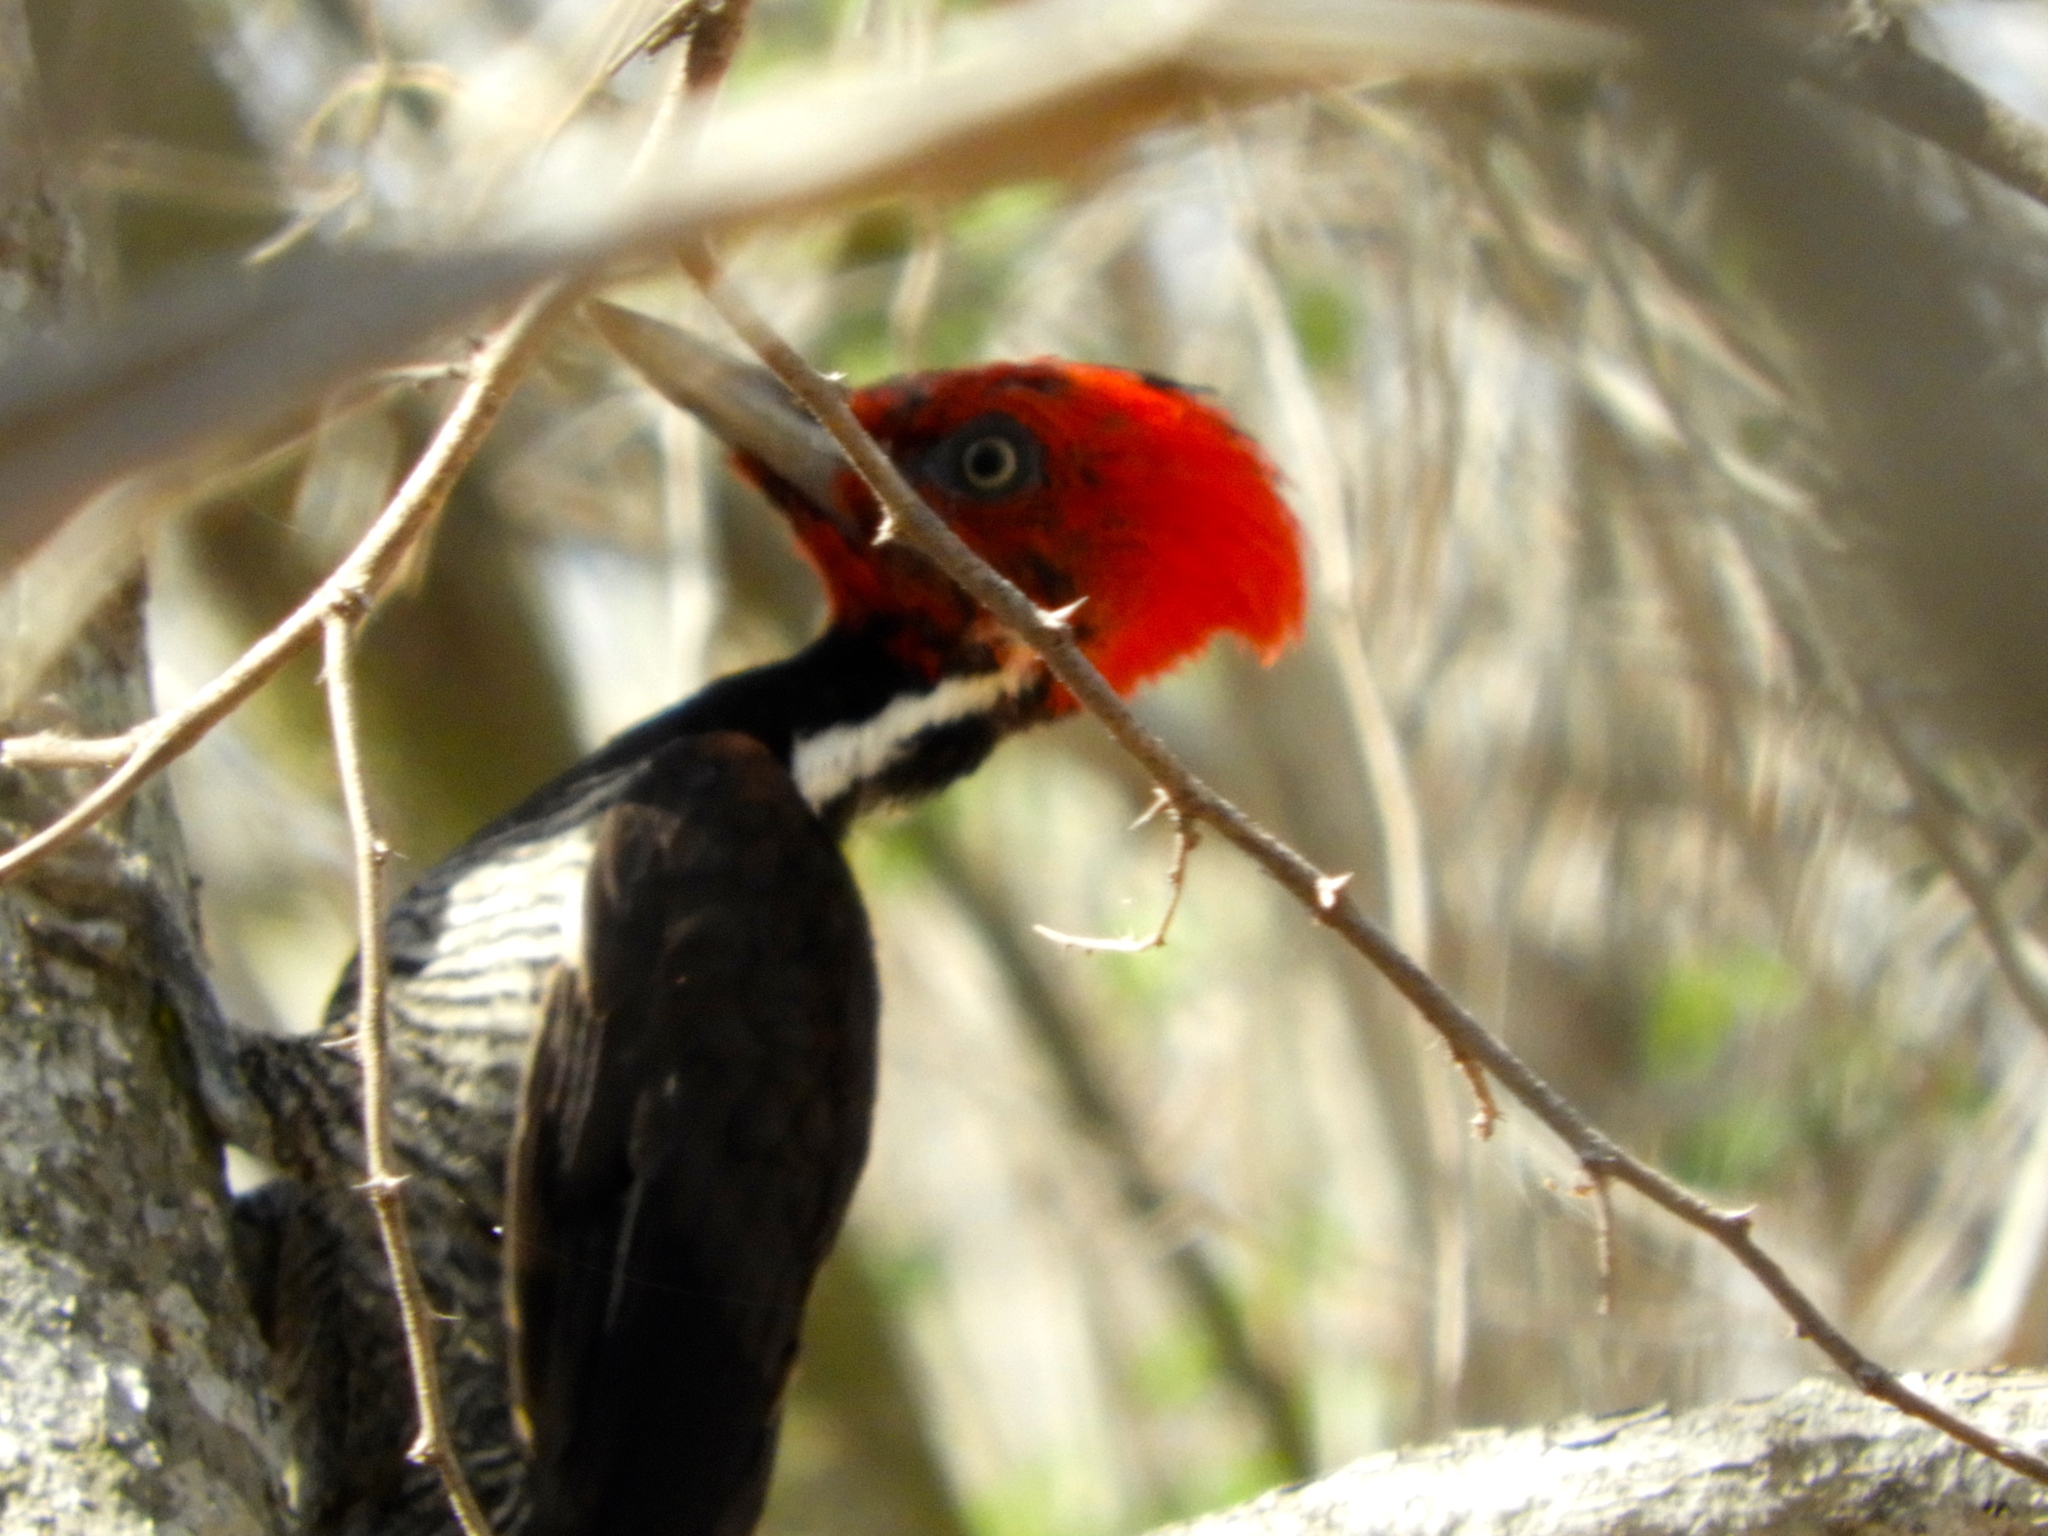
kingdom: Animalia
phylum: Chordata
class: Aves
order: Piciformes
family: Picidae
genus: Campephilus
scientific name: Campephilus guatemalensis
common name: Pale-billed woodpecker
